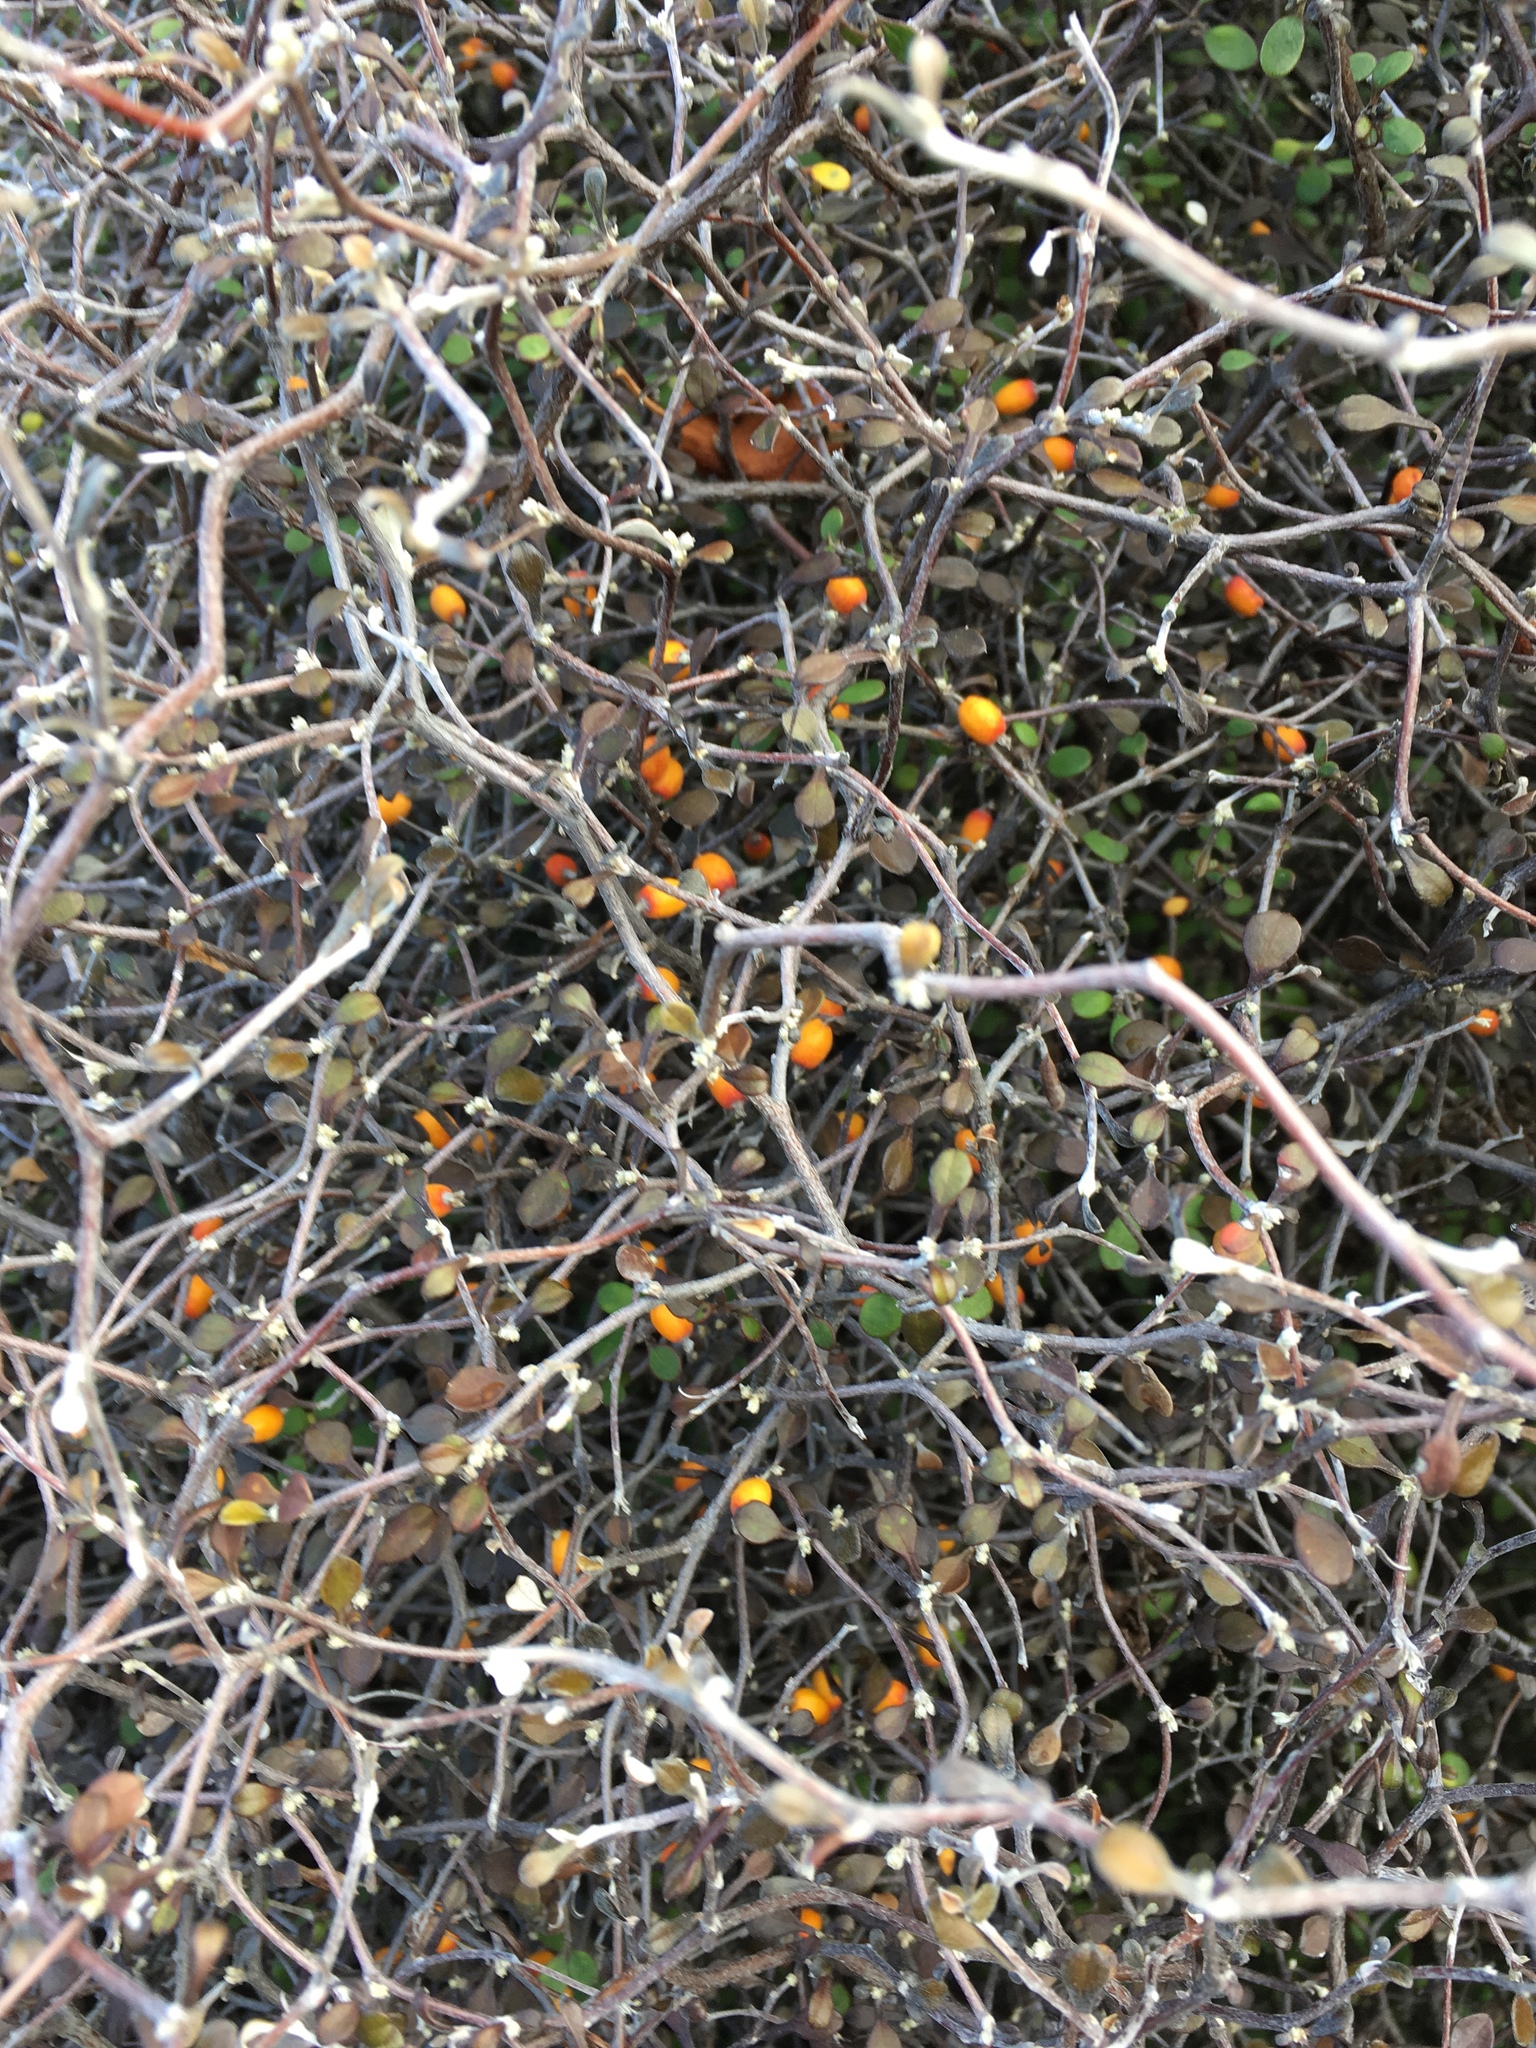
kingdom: Plantae
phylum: Tracheophyta
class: Magnoliopsida
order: Asterales
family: Argophyllaceae
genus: Corokia
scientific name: Corokia cotoneaster
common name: Wire nettingbush
